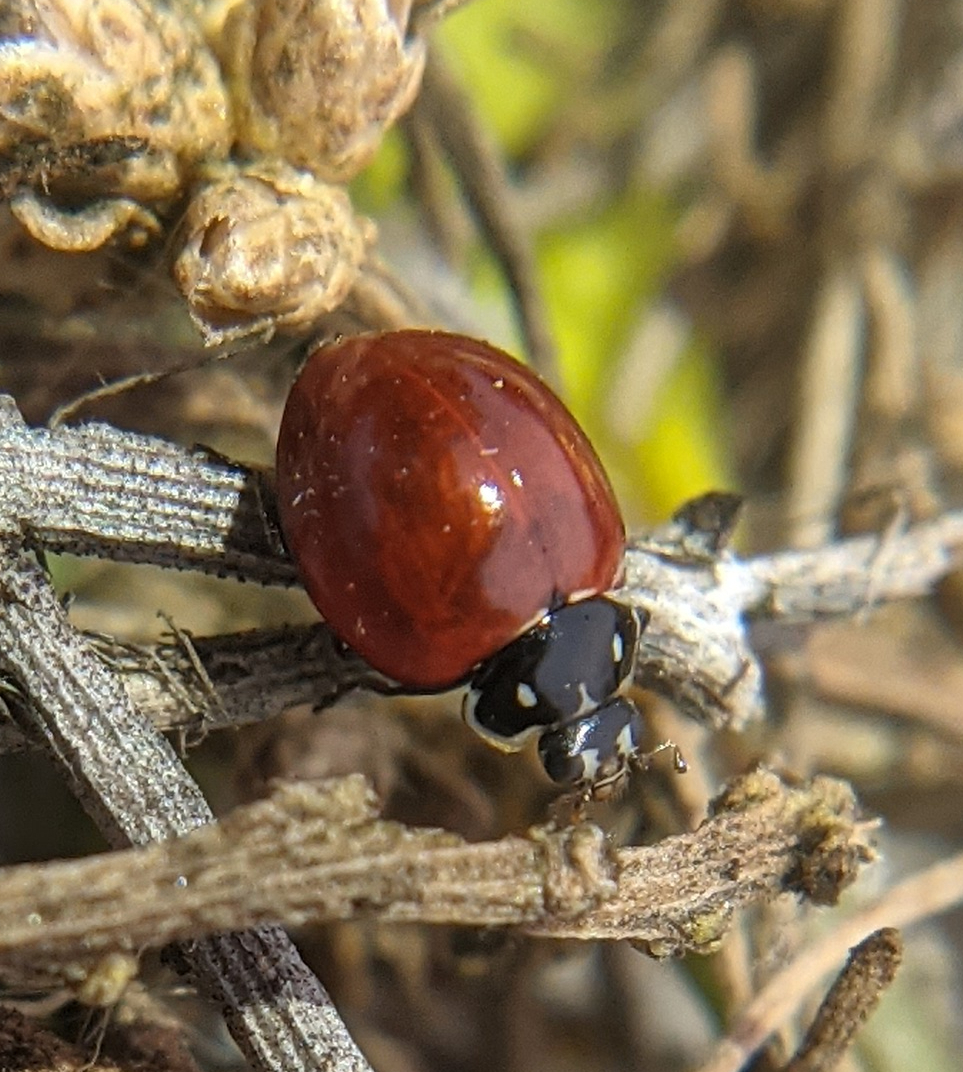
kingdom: Animalia
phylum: Arthropoda
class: Insecta
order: Coleoptera
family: Coccinellidae
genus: Cycloneda
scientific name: Cycloneda sanguinea
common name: Ladybird beetle
